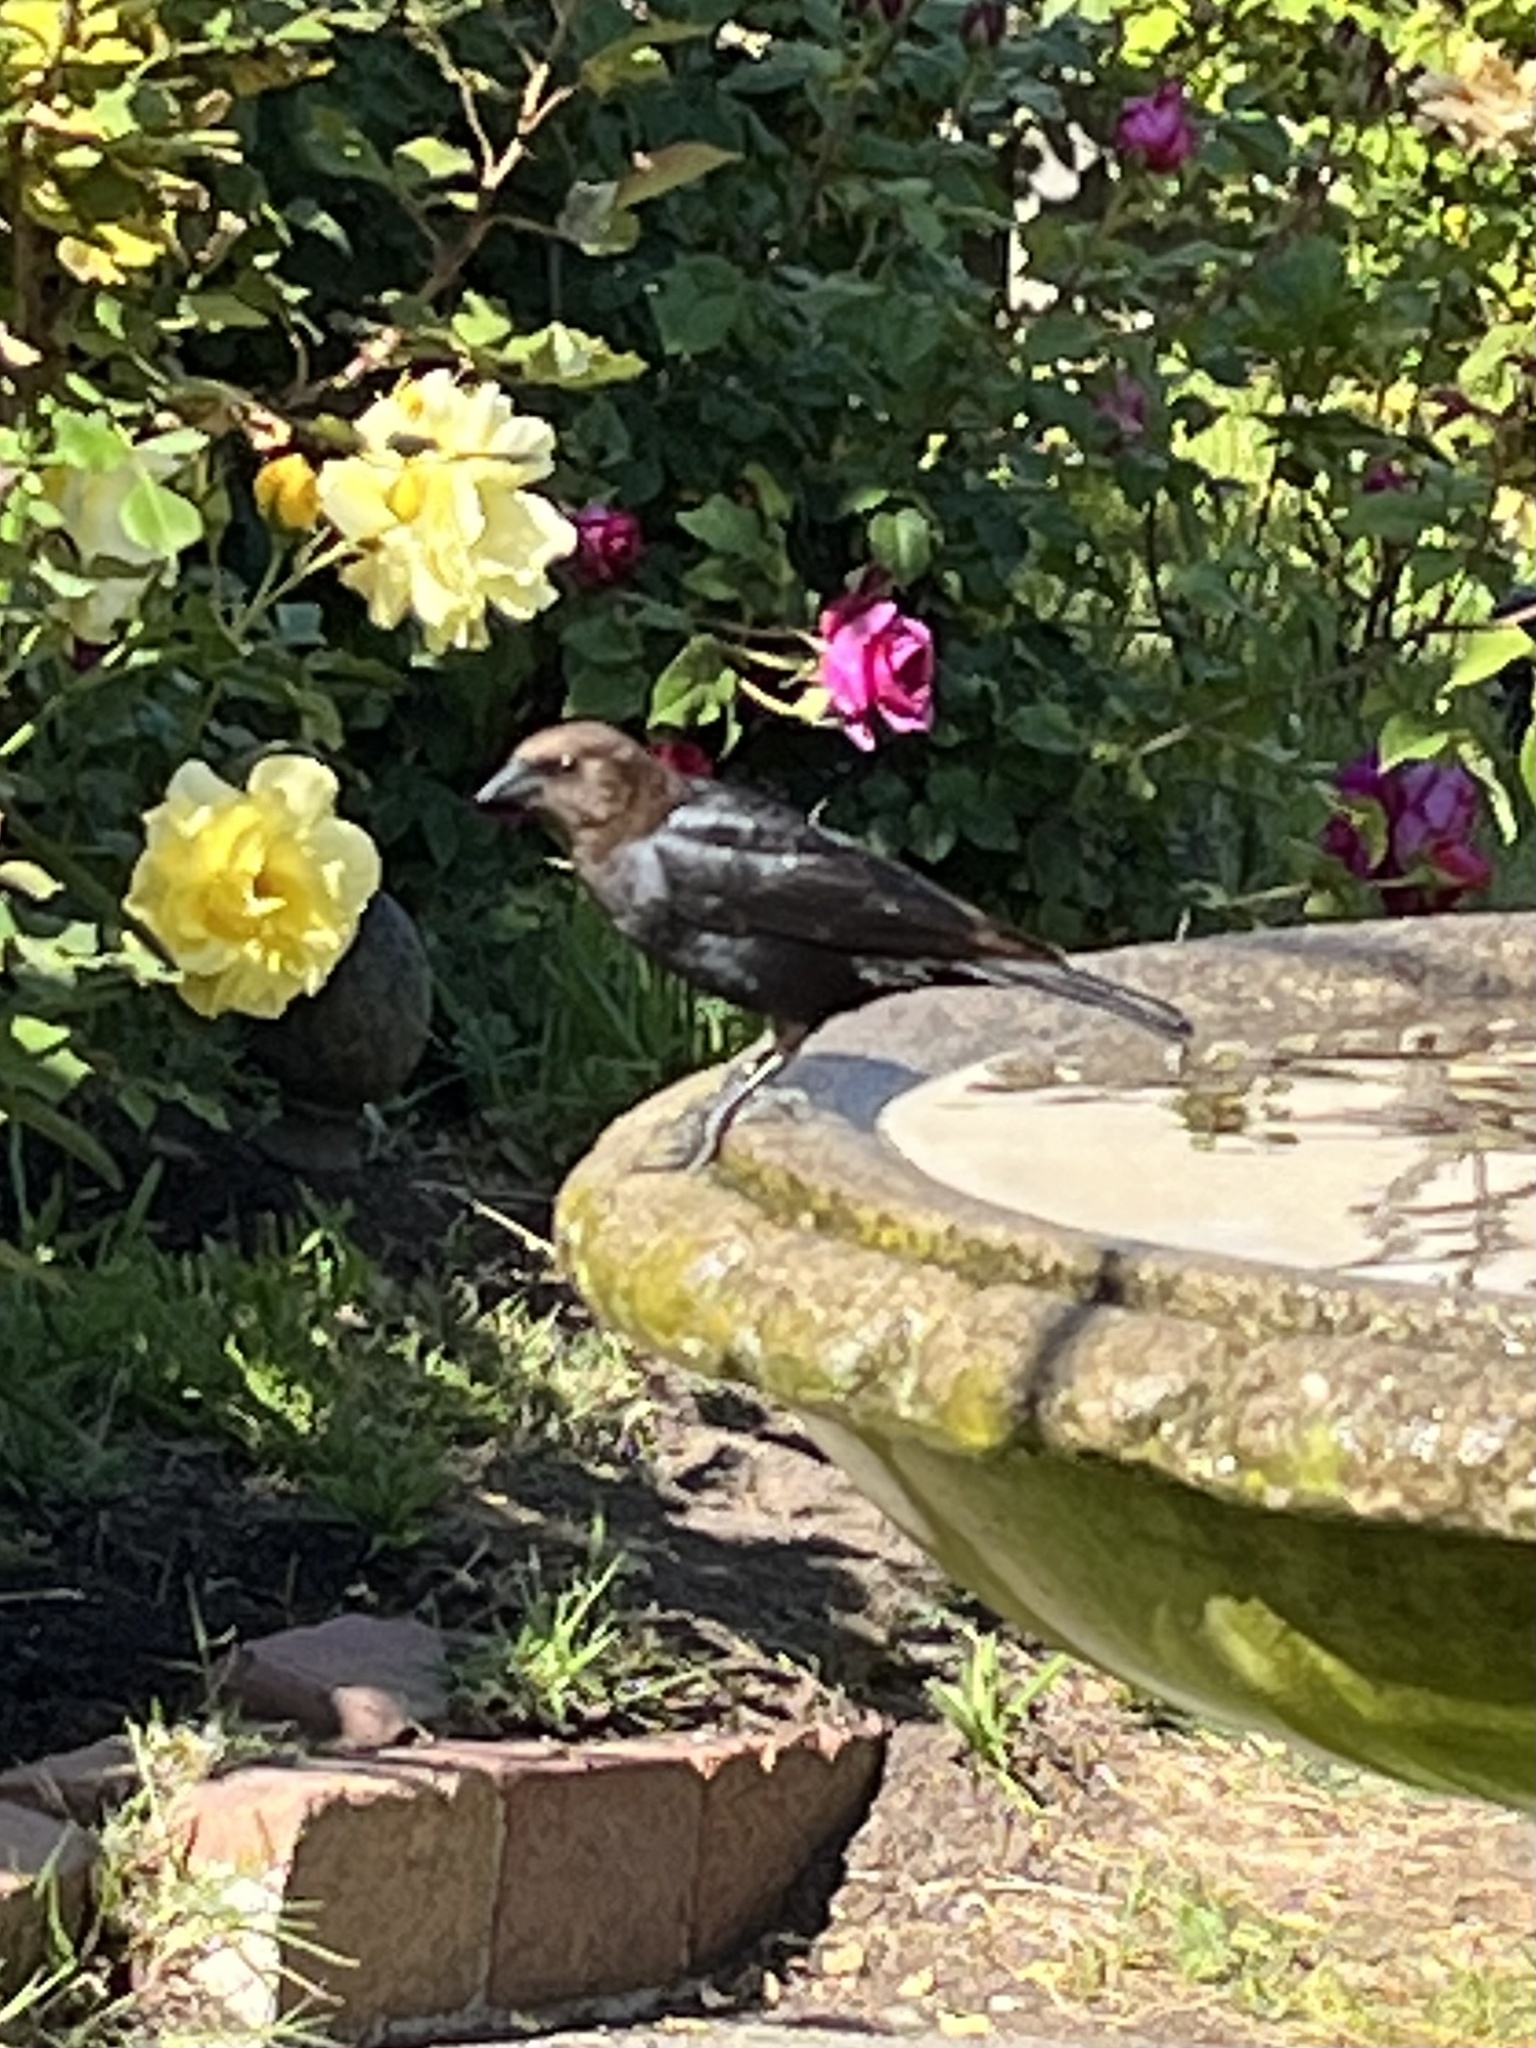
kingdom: Animalia
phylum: Chordata
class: Aves
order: Passeriformes
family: Icteridae
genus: Molothrus
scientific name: Molothrus ater
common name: Brown-headed cowbird
